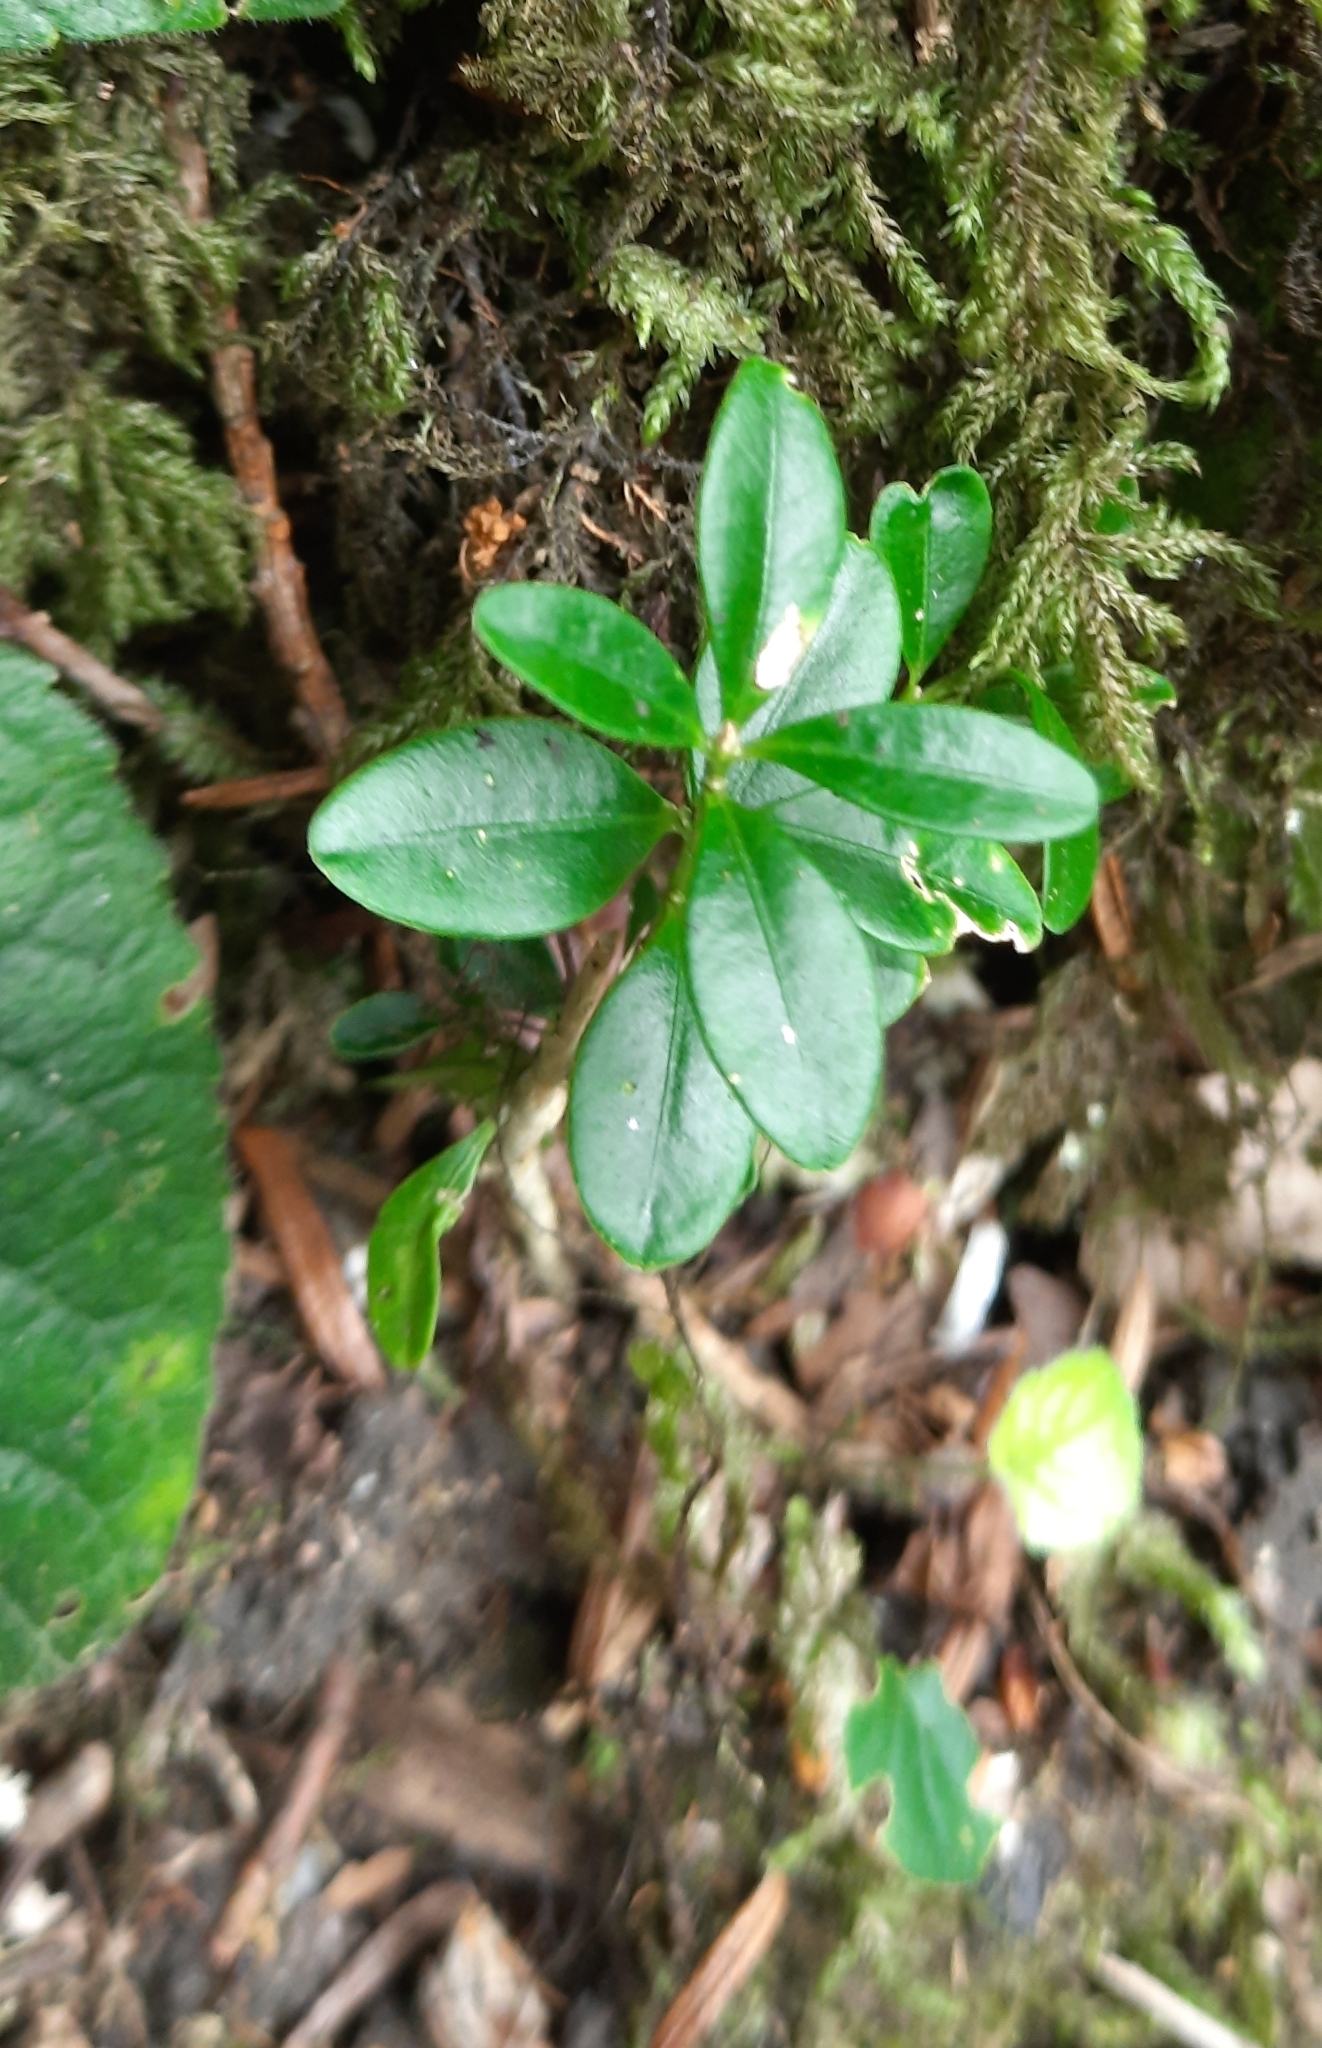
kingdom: Plantae
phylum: Tracheophyta
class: Magnoliopsida
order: Buxales
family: Buxaceae
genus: Buxus
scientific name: Buxus sempervirens
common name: Box
